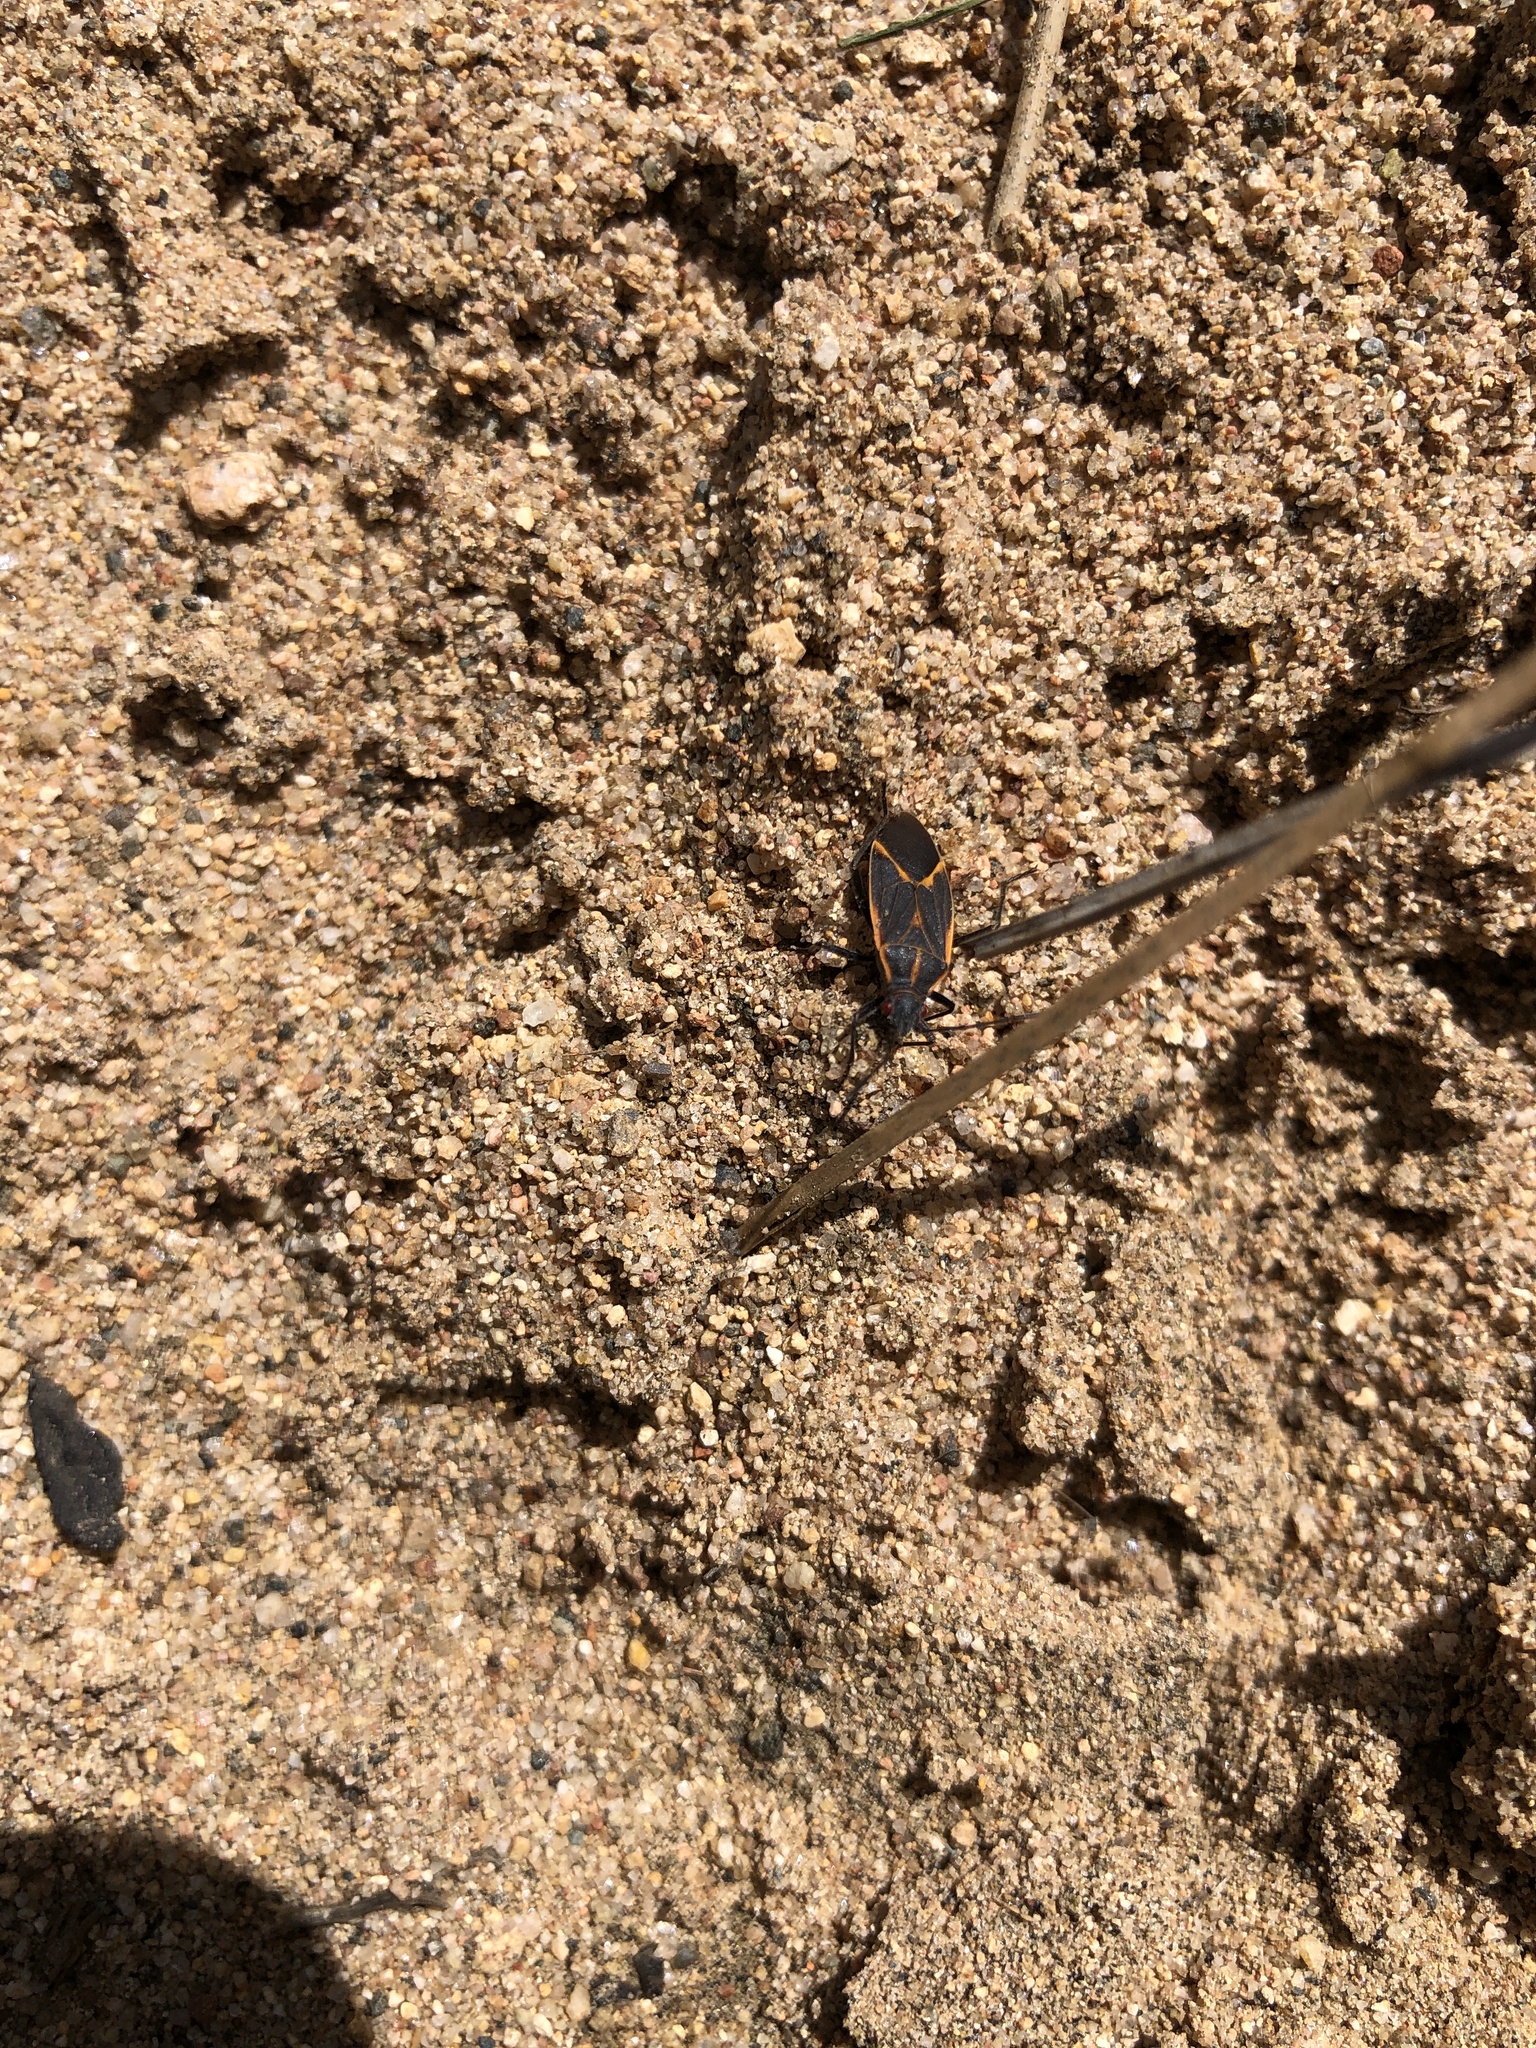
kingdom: Animalia
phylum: Arthropoda
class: Insecta
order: Hemiptera
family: Rhopalidae
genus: Boisea
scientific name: Boisea trivittata
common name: Boxelder bug
